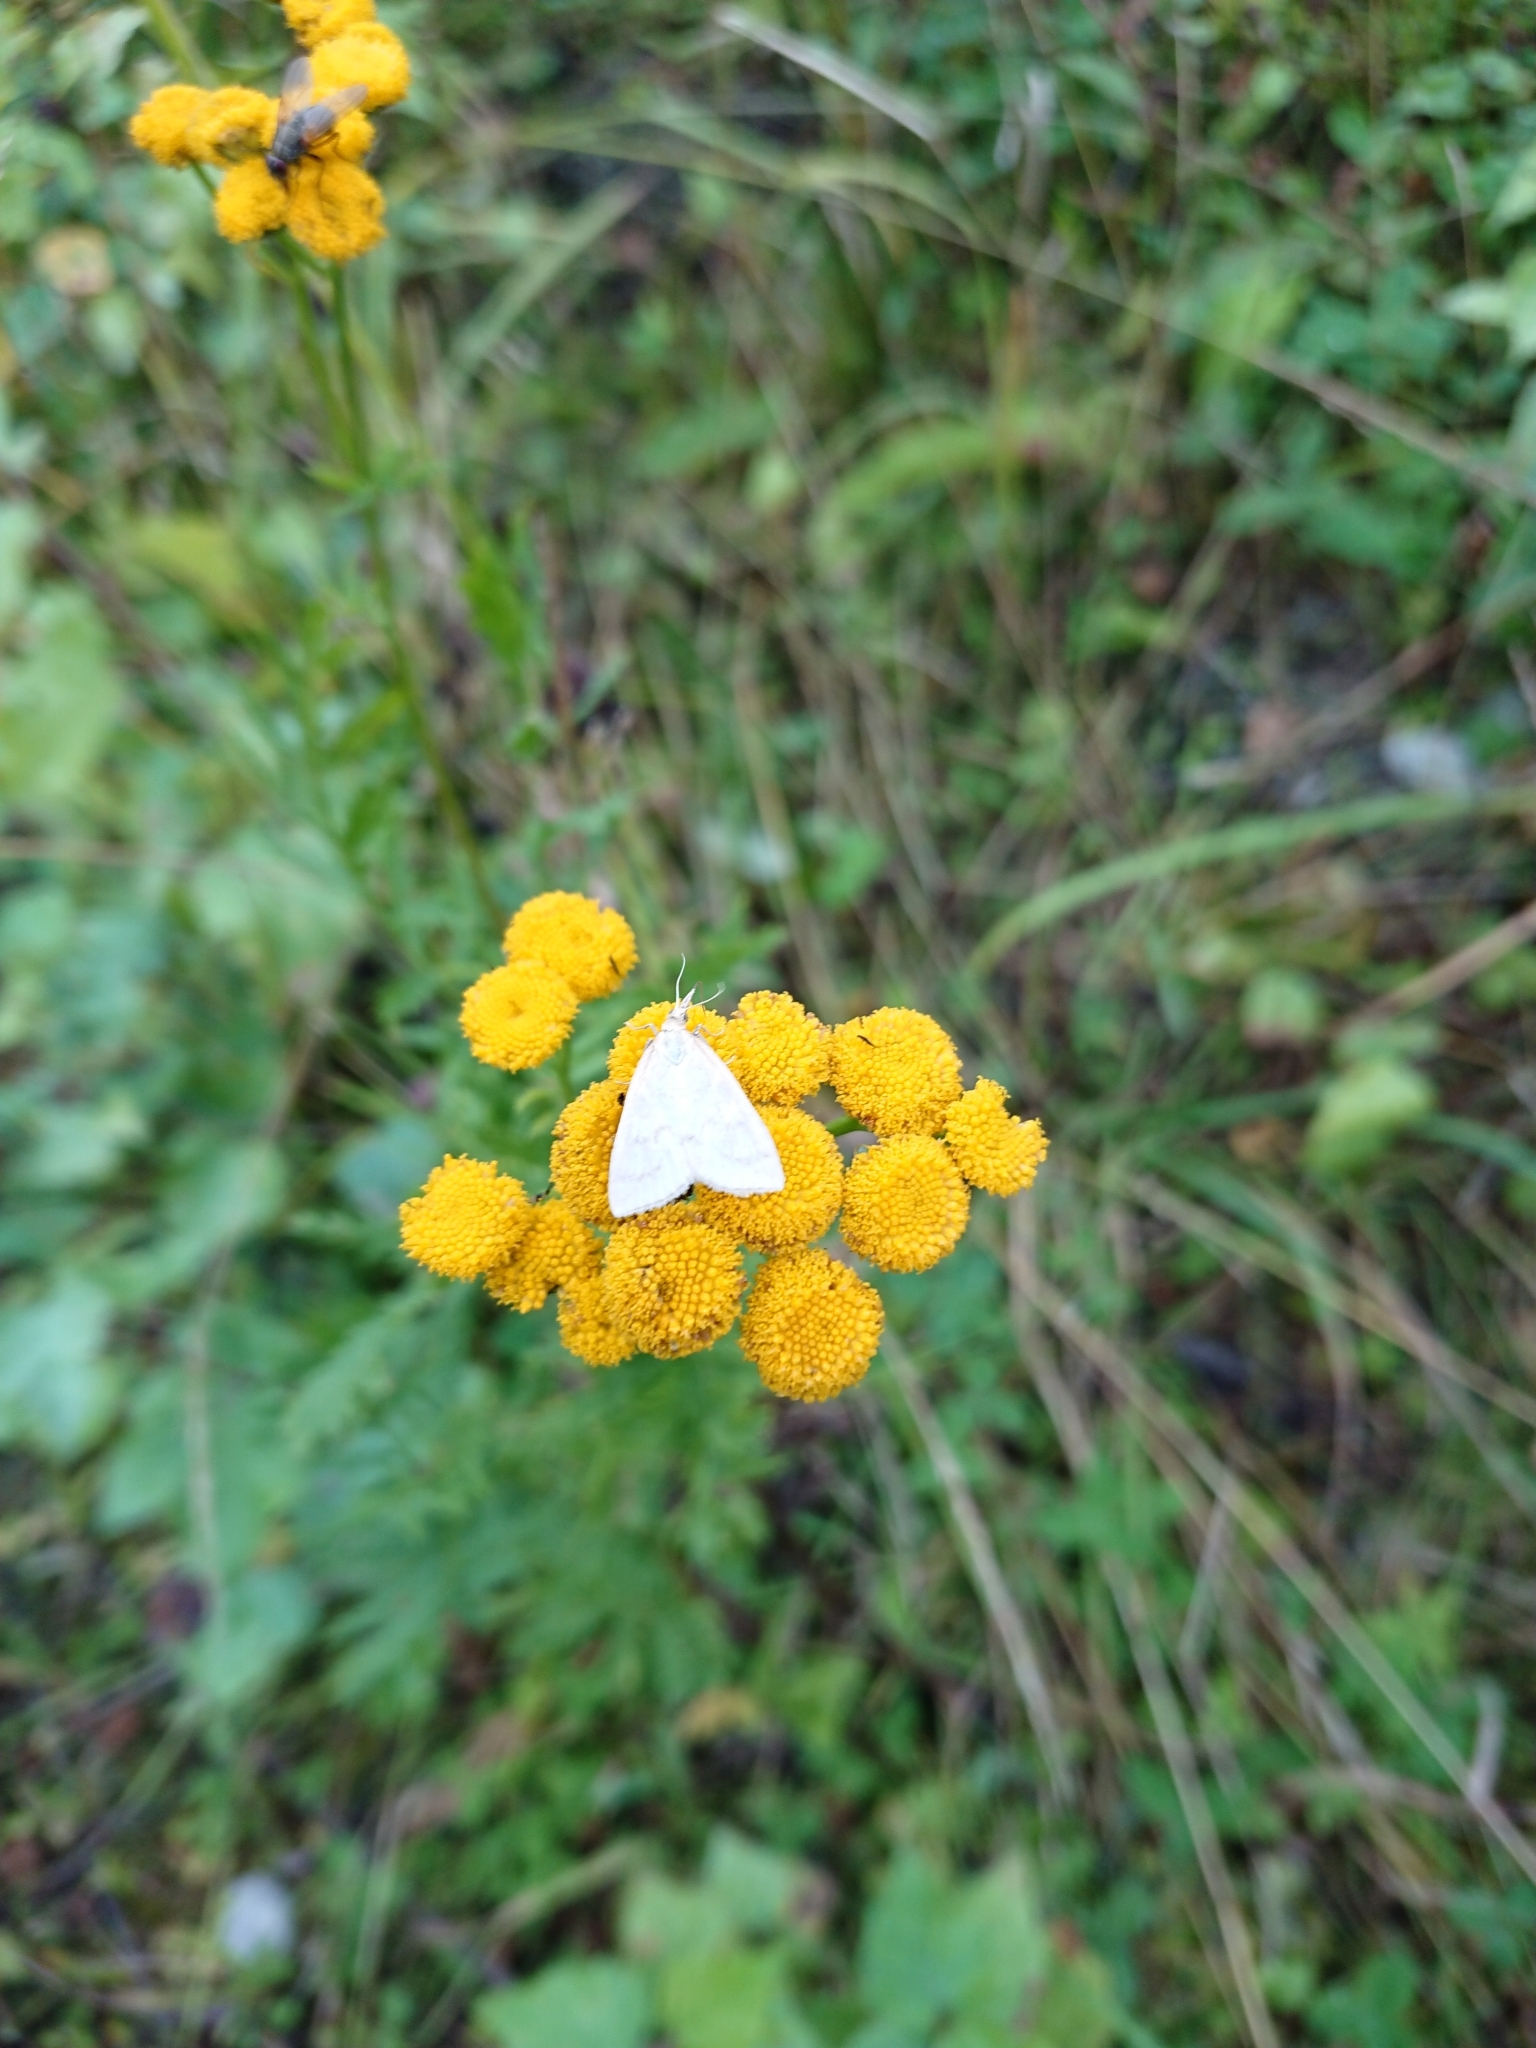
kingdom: Animalia
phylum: Arthropoda
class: Insecta
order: Lepidoptera
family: Crambidae
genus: Udea
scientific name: Udea lutealis
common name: Pale straw pearl
